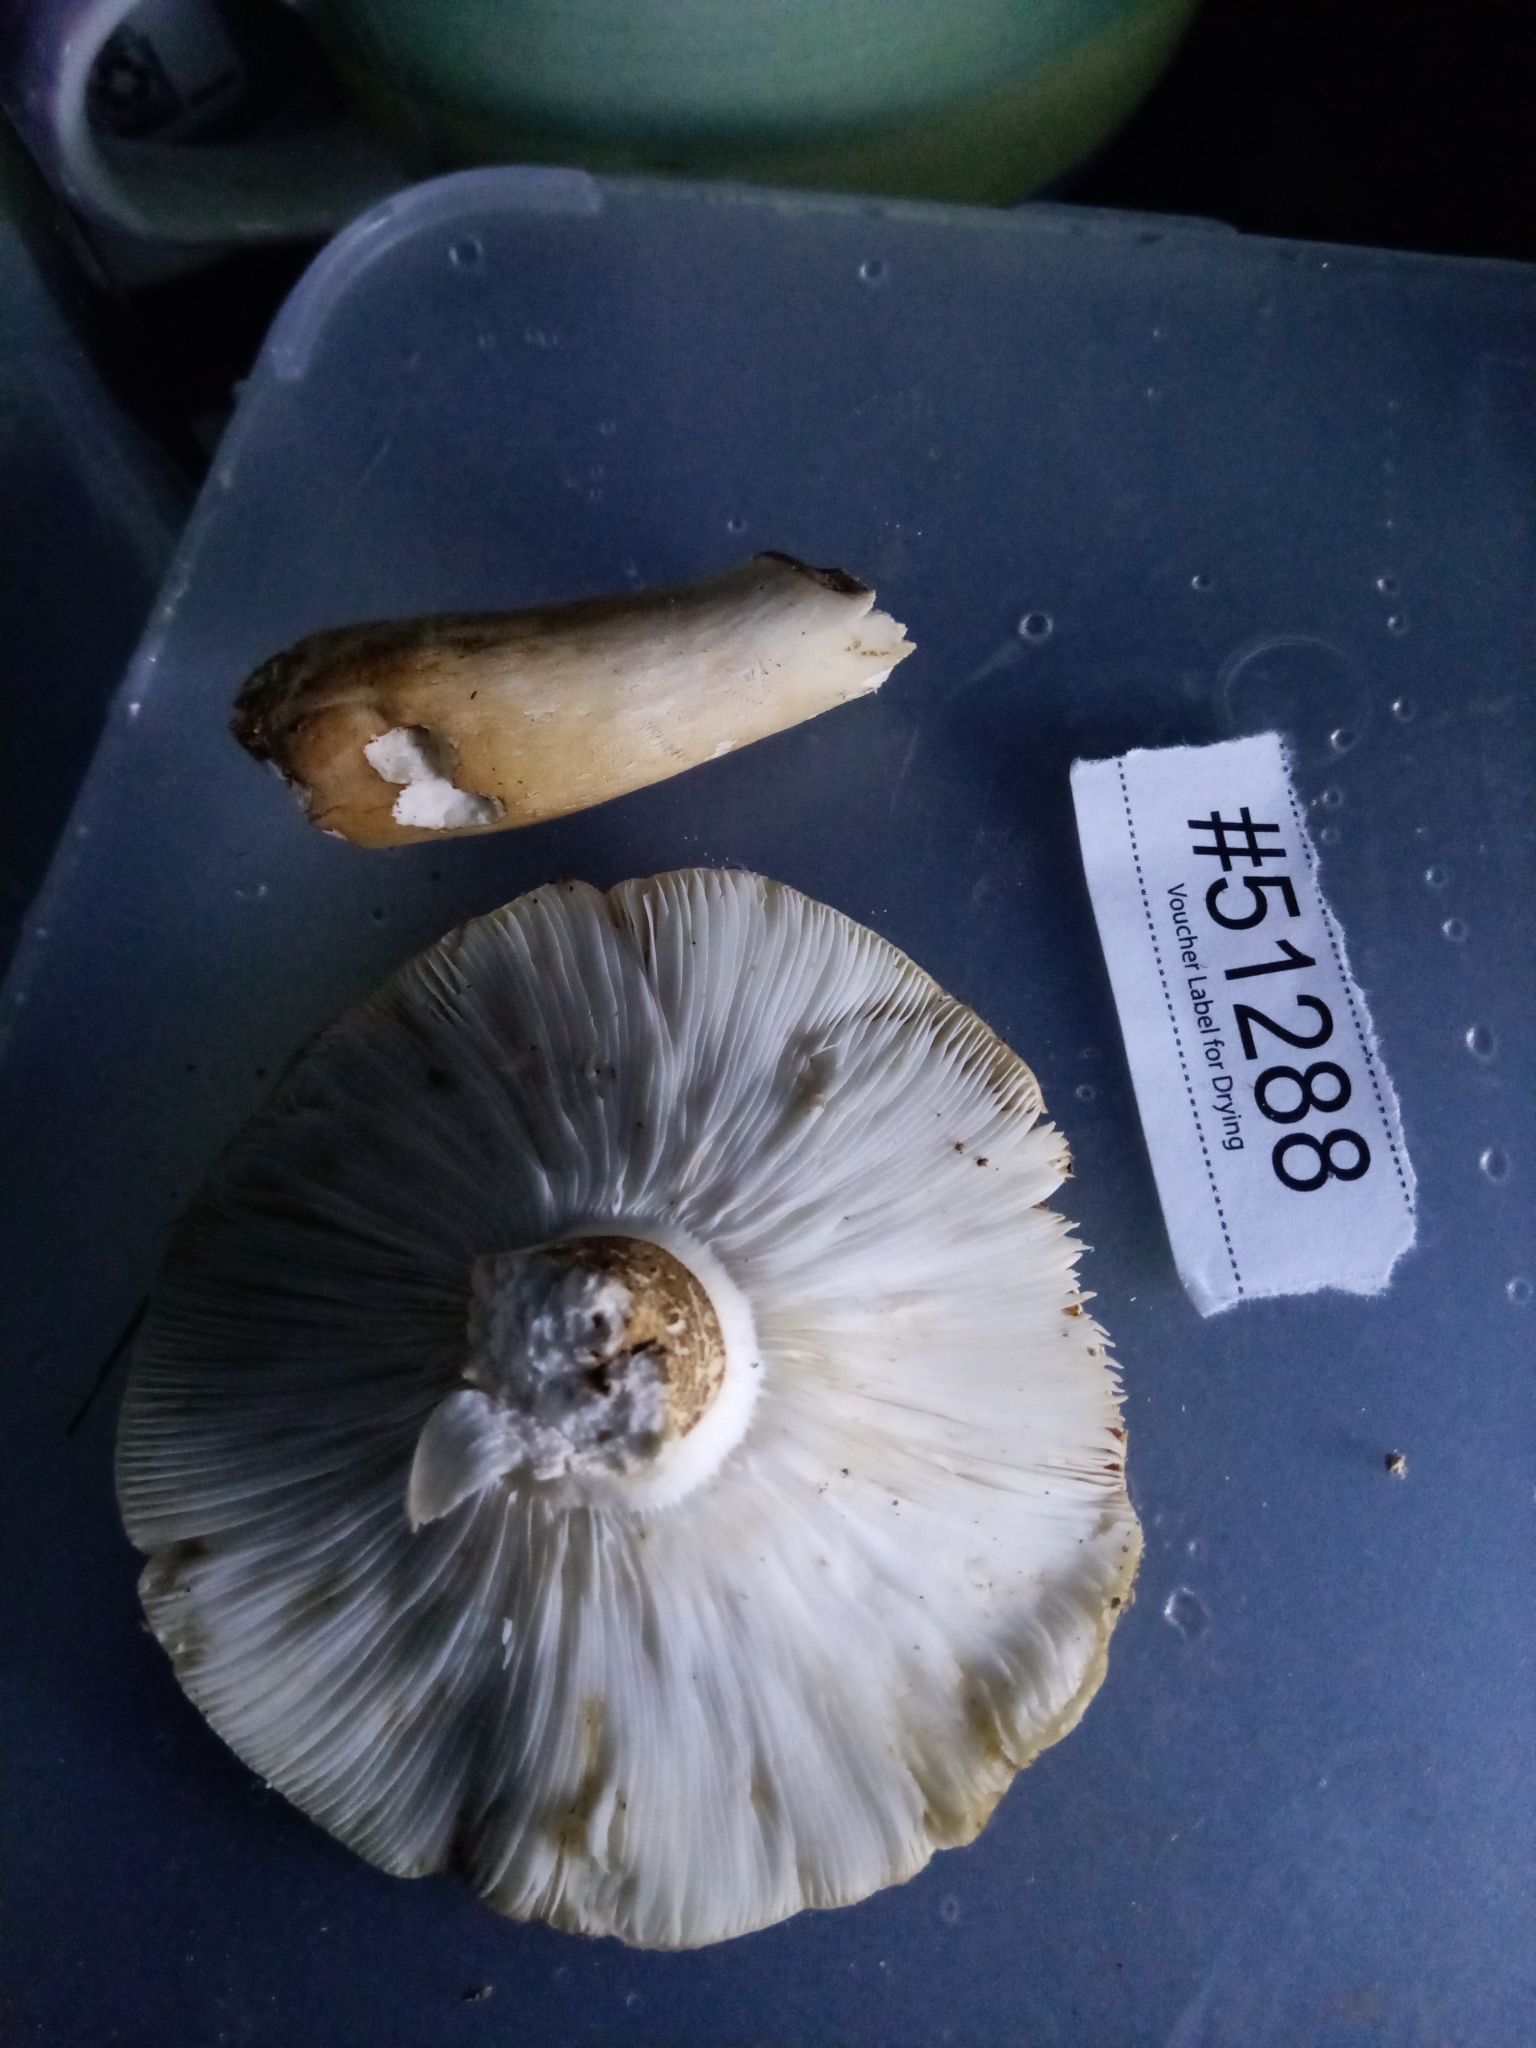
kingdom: Fungi
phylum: Basidiomycota
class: Agaricomycetes
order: Russulales
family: Russulaceae
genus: Russula
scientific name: Russula compacta
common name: Fishbiscuit russula
